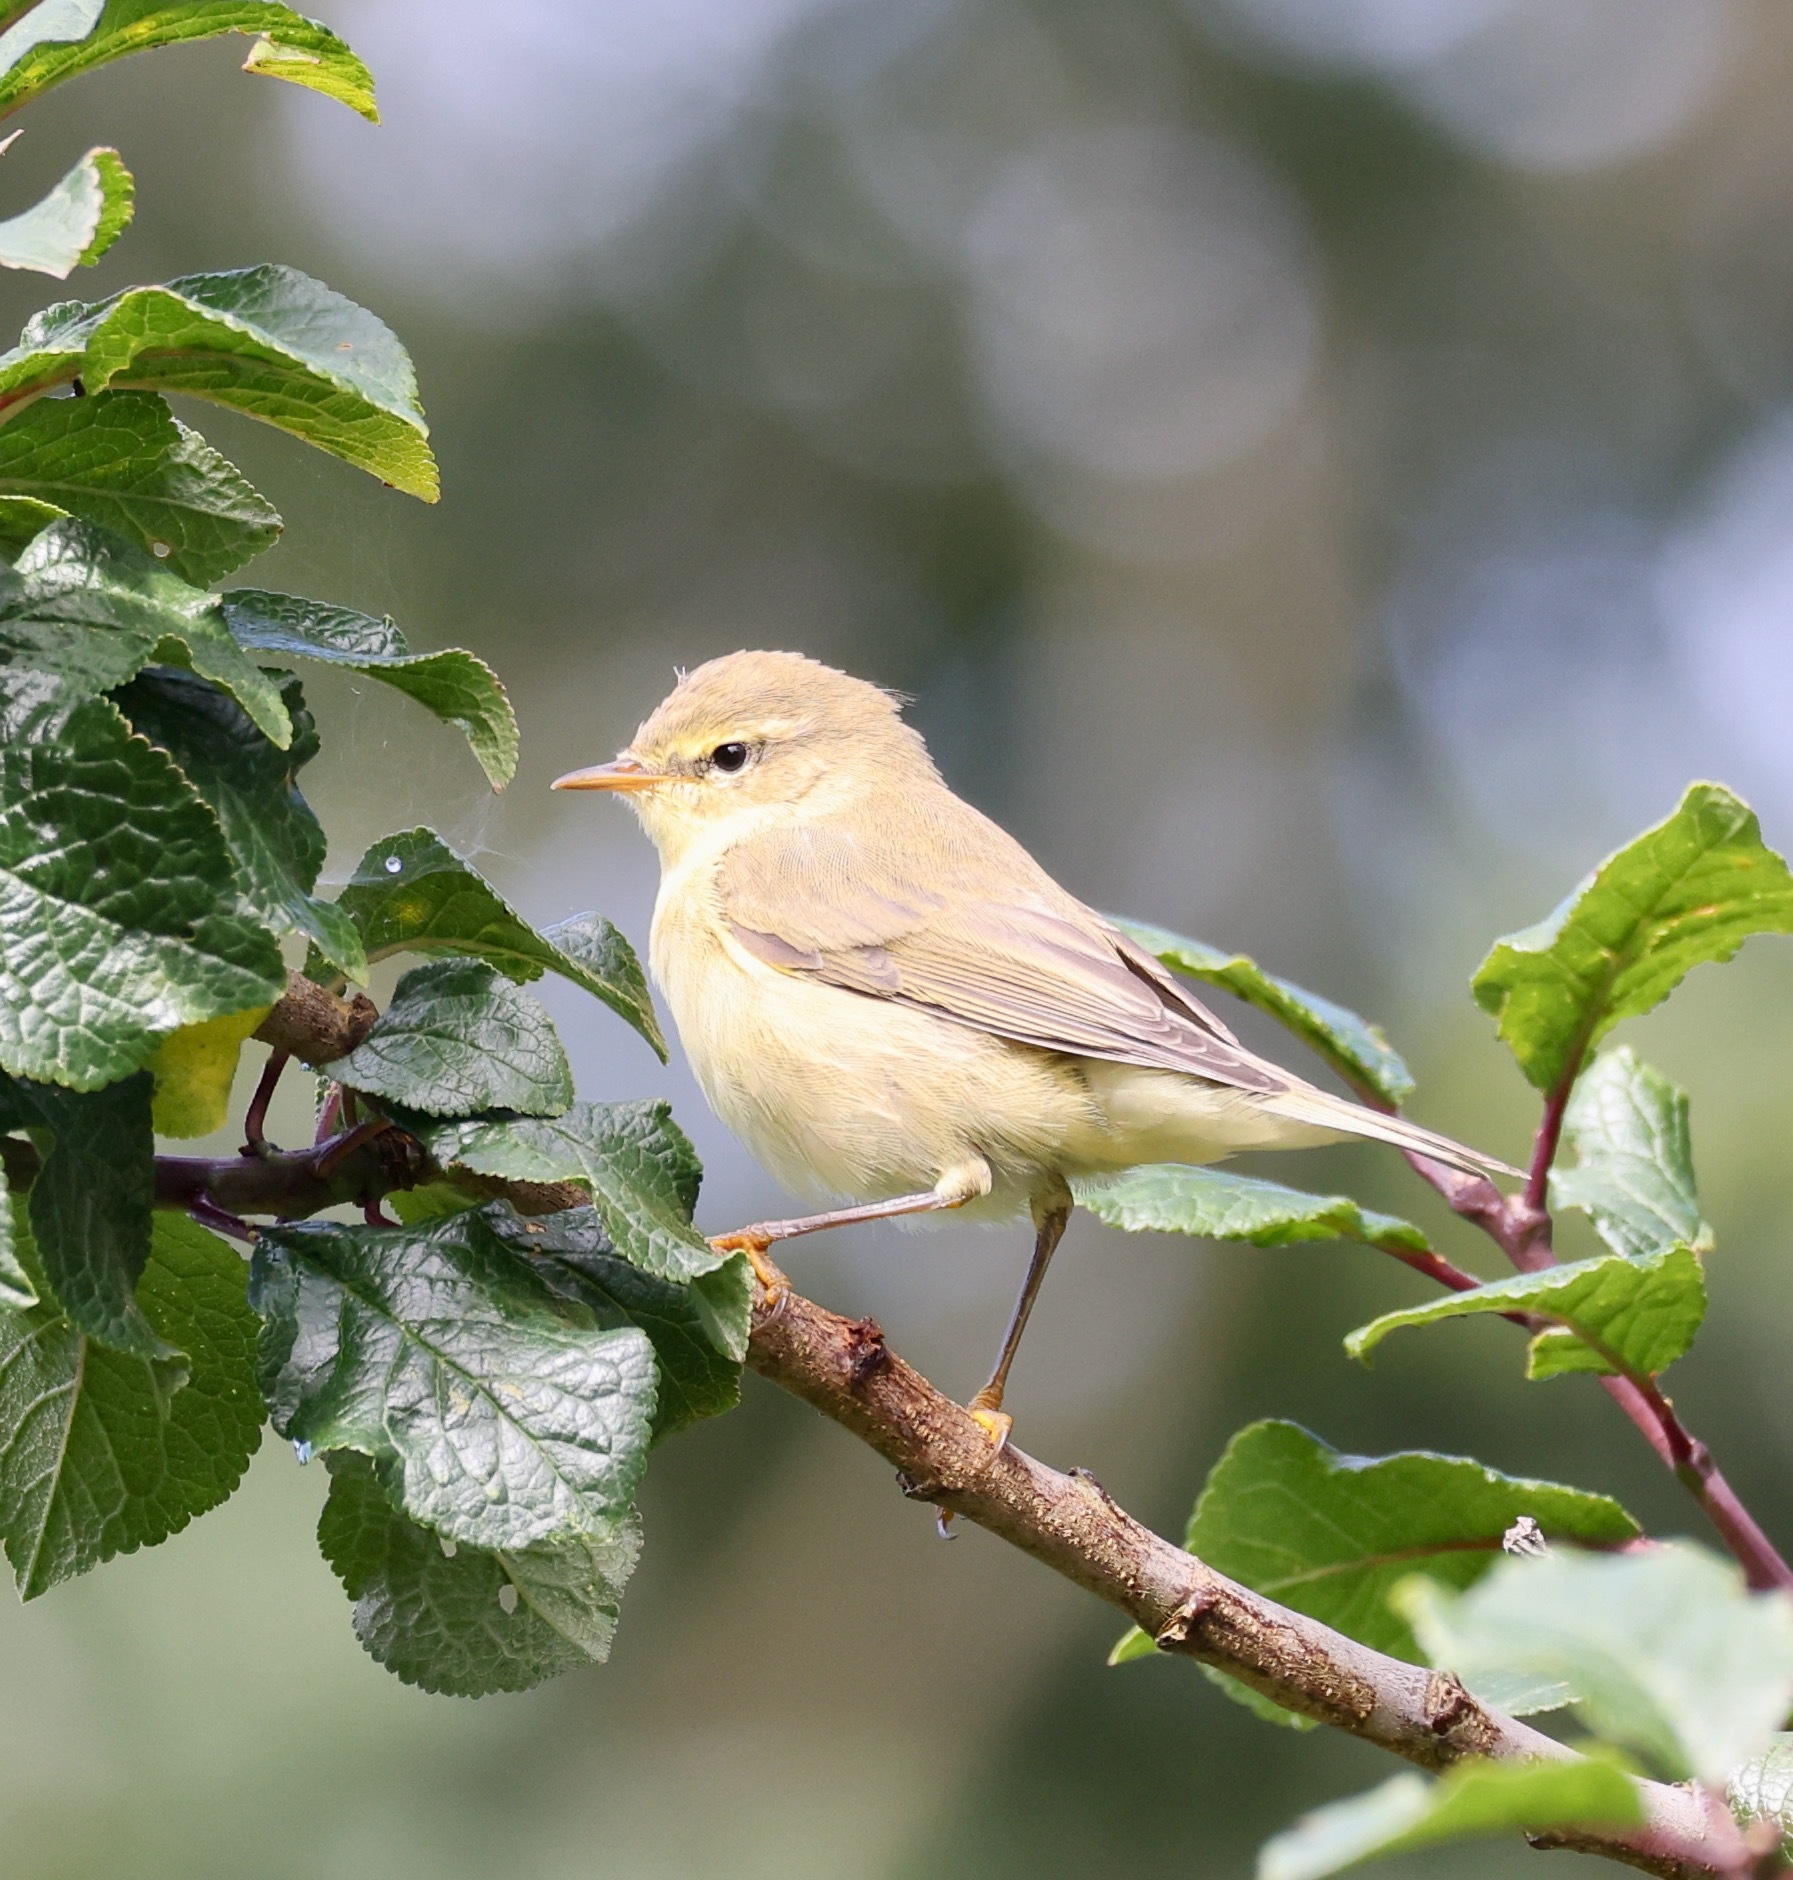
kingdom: Animalia
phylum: Chordata
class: Aves
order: Passeriformes
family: Phylloscopidae
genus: Phylloscopus
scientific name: Phylloscopus trochilus
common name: Willow warbler
